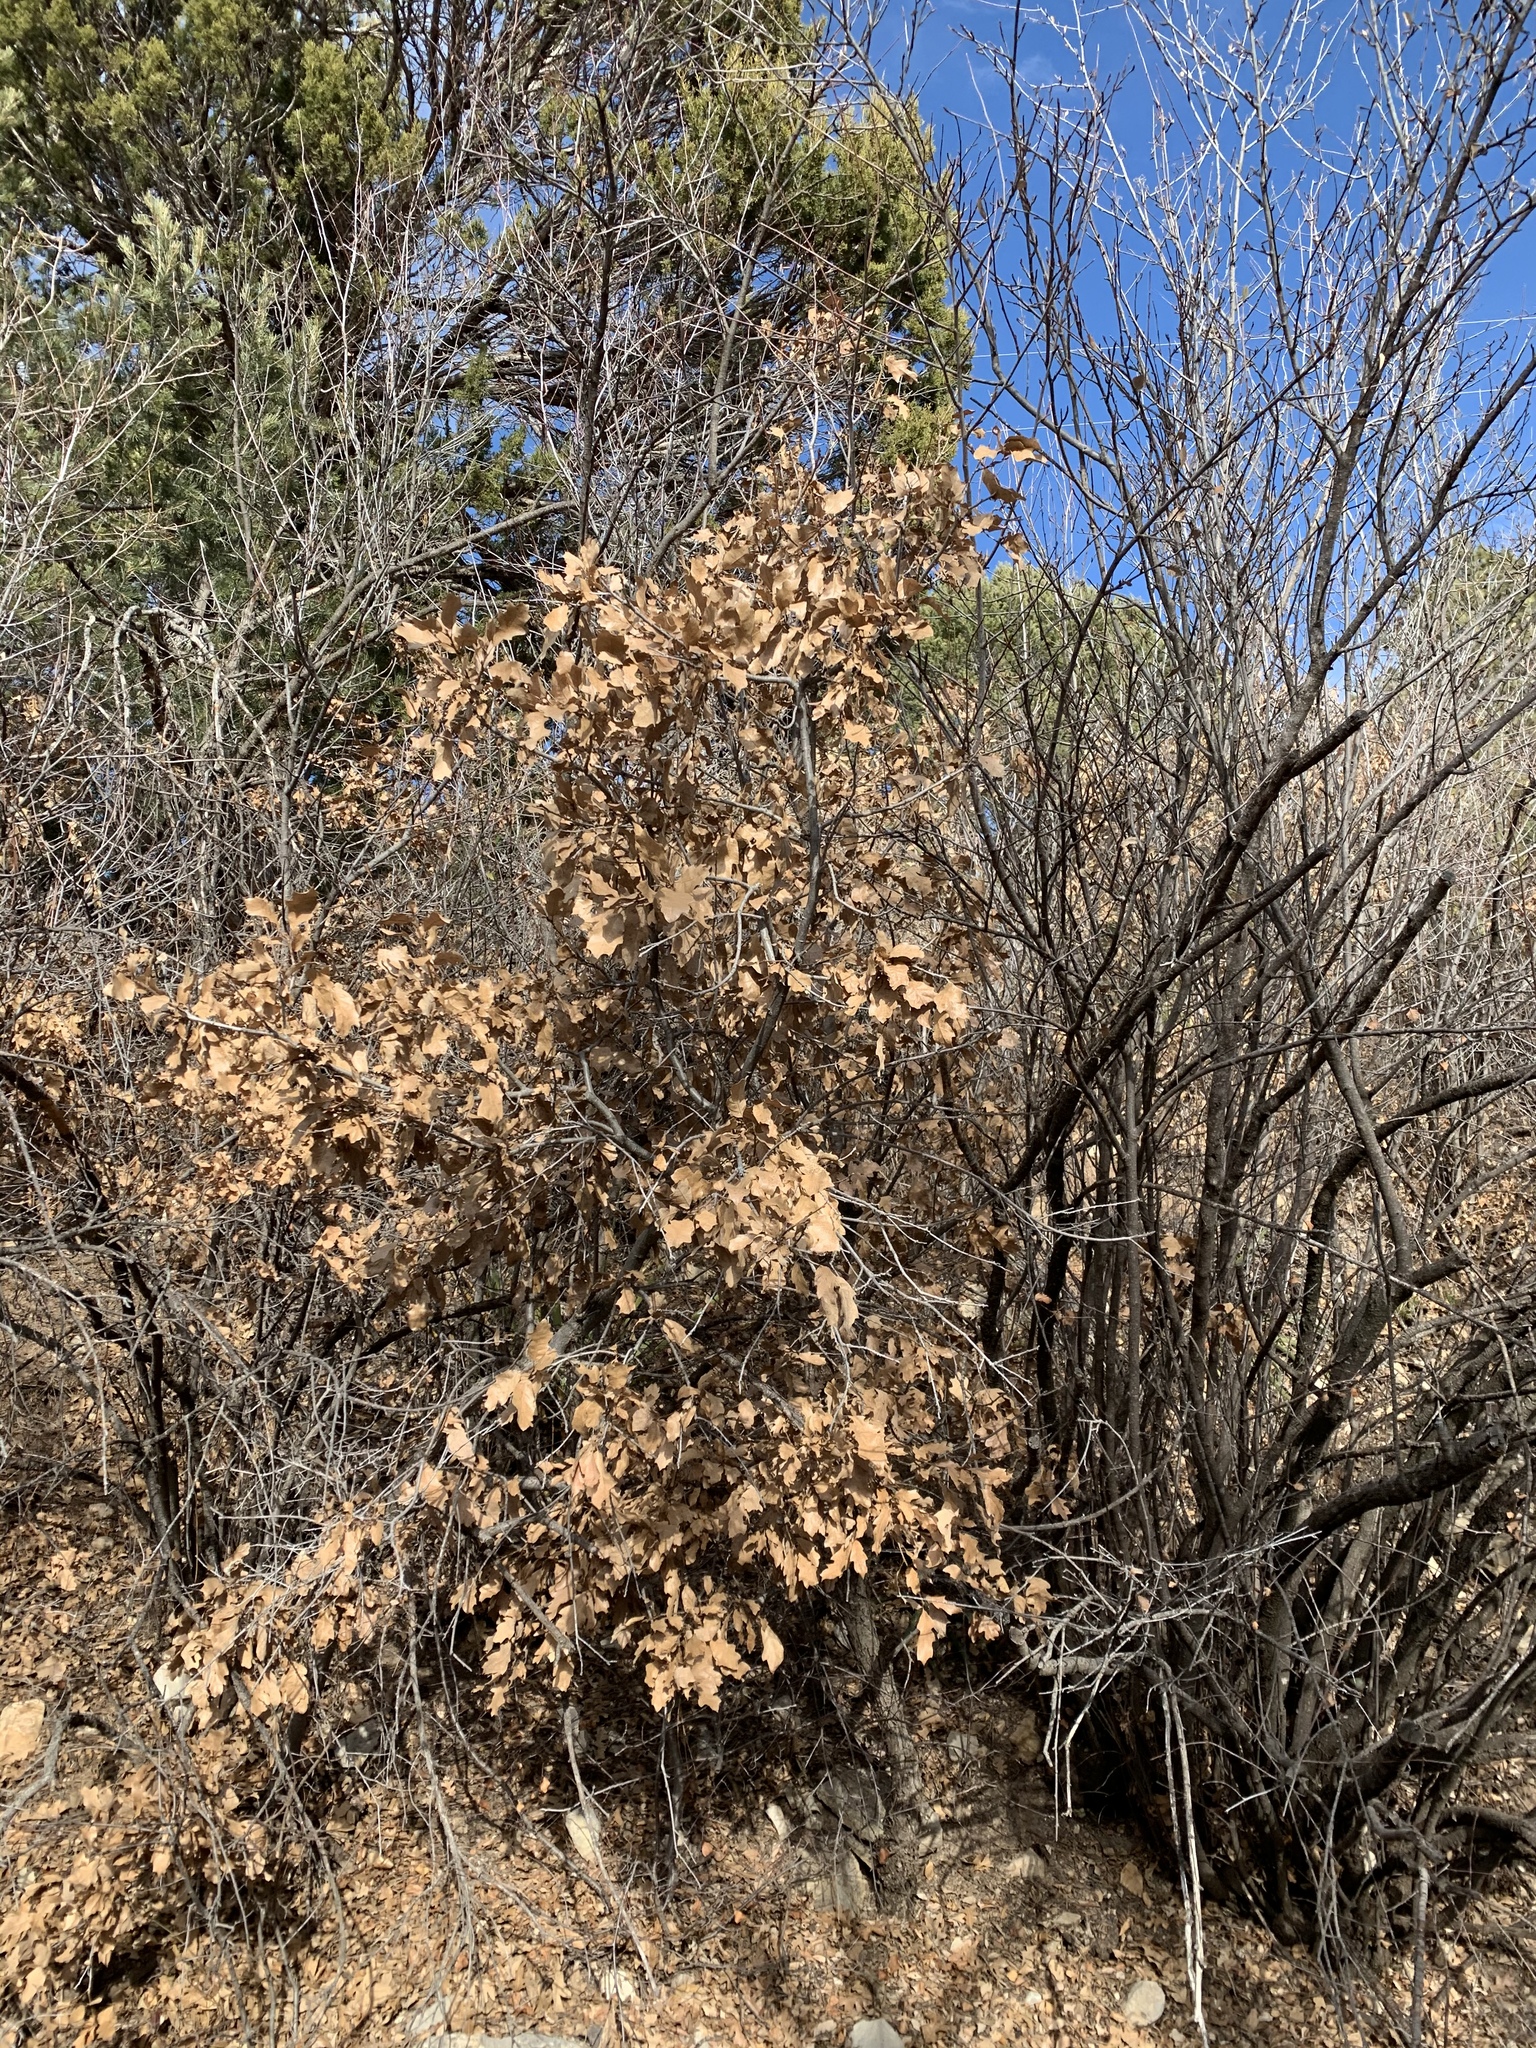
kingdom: Plantae
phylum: Tracheophyta
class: Magnoliopsida
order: Fagales
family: Fagaceae
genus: Quercus
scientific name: Quercus gambelii
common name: Gambel oak
